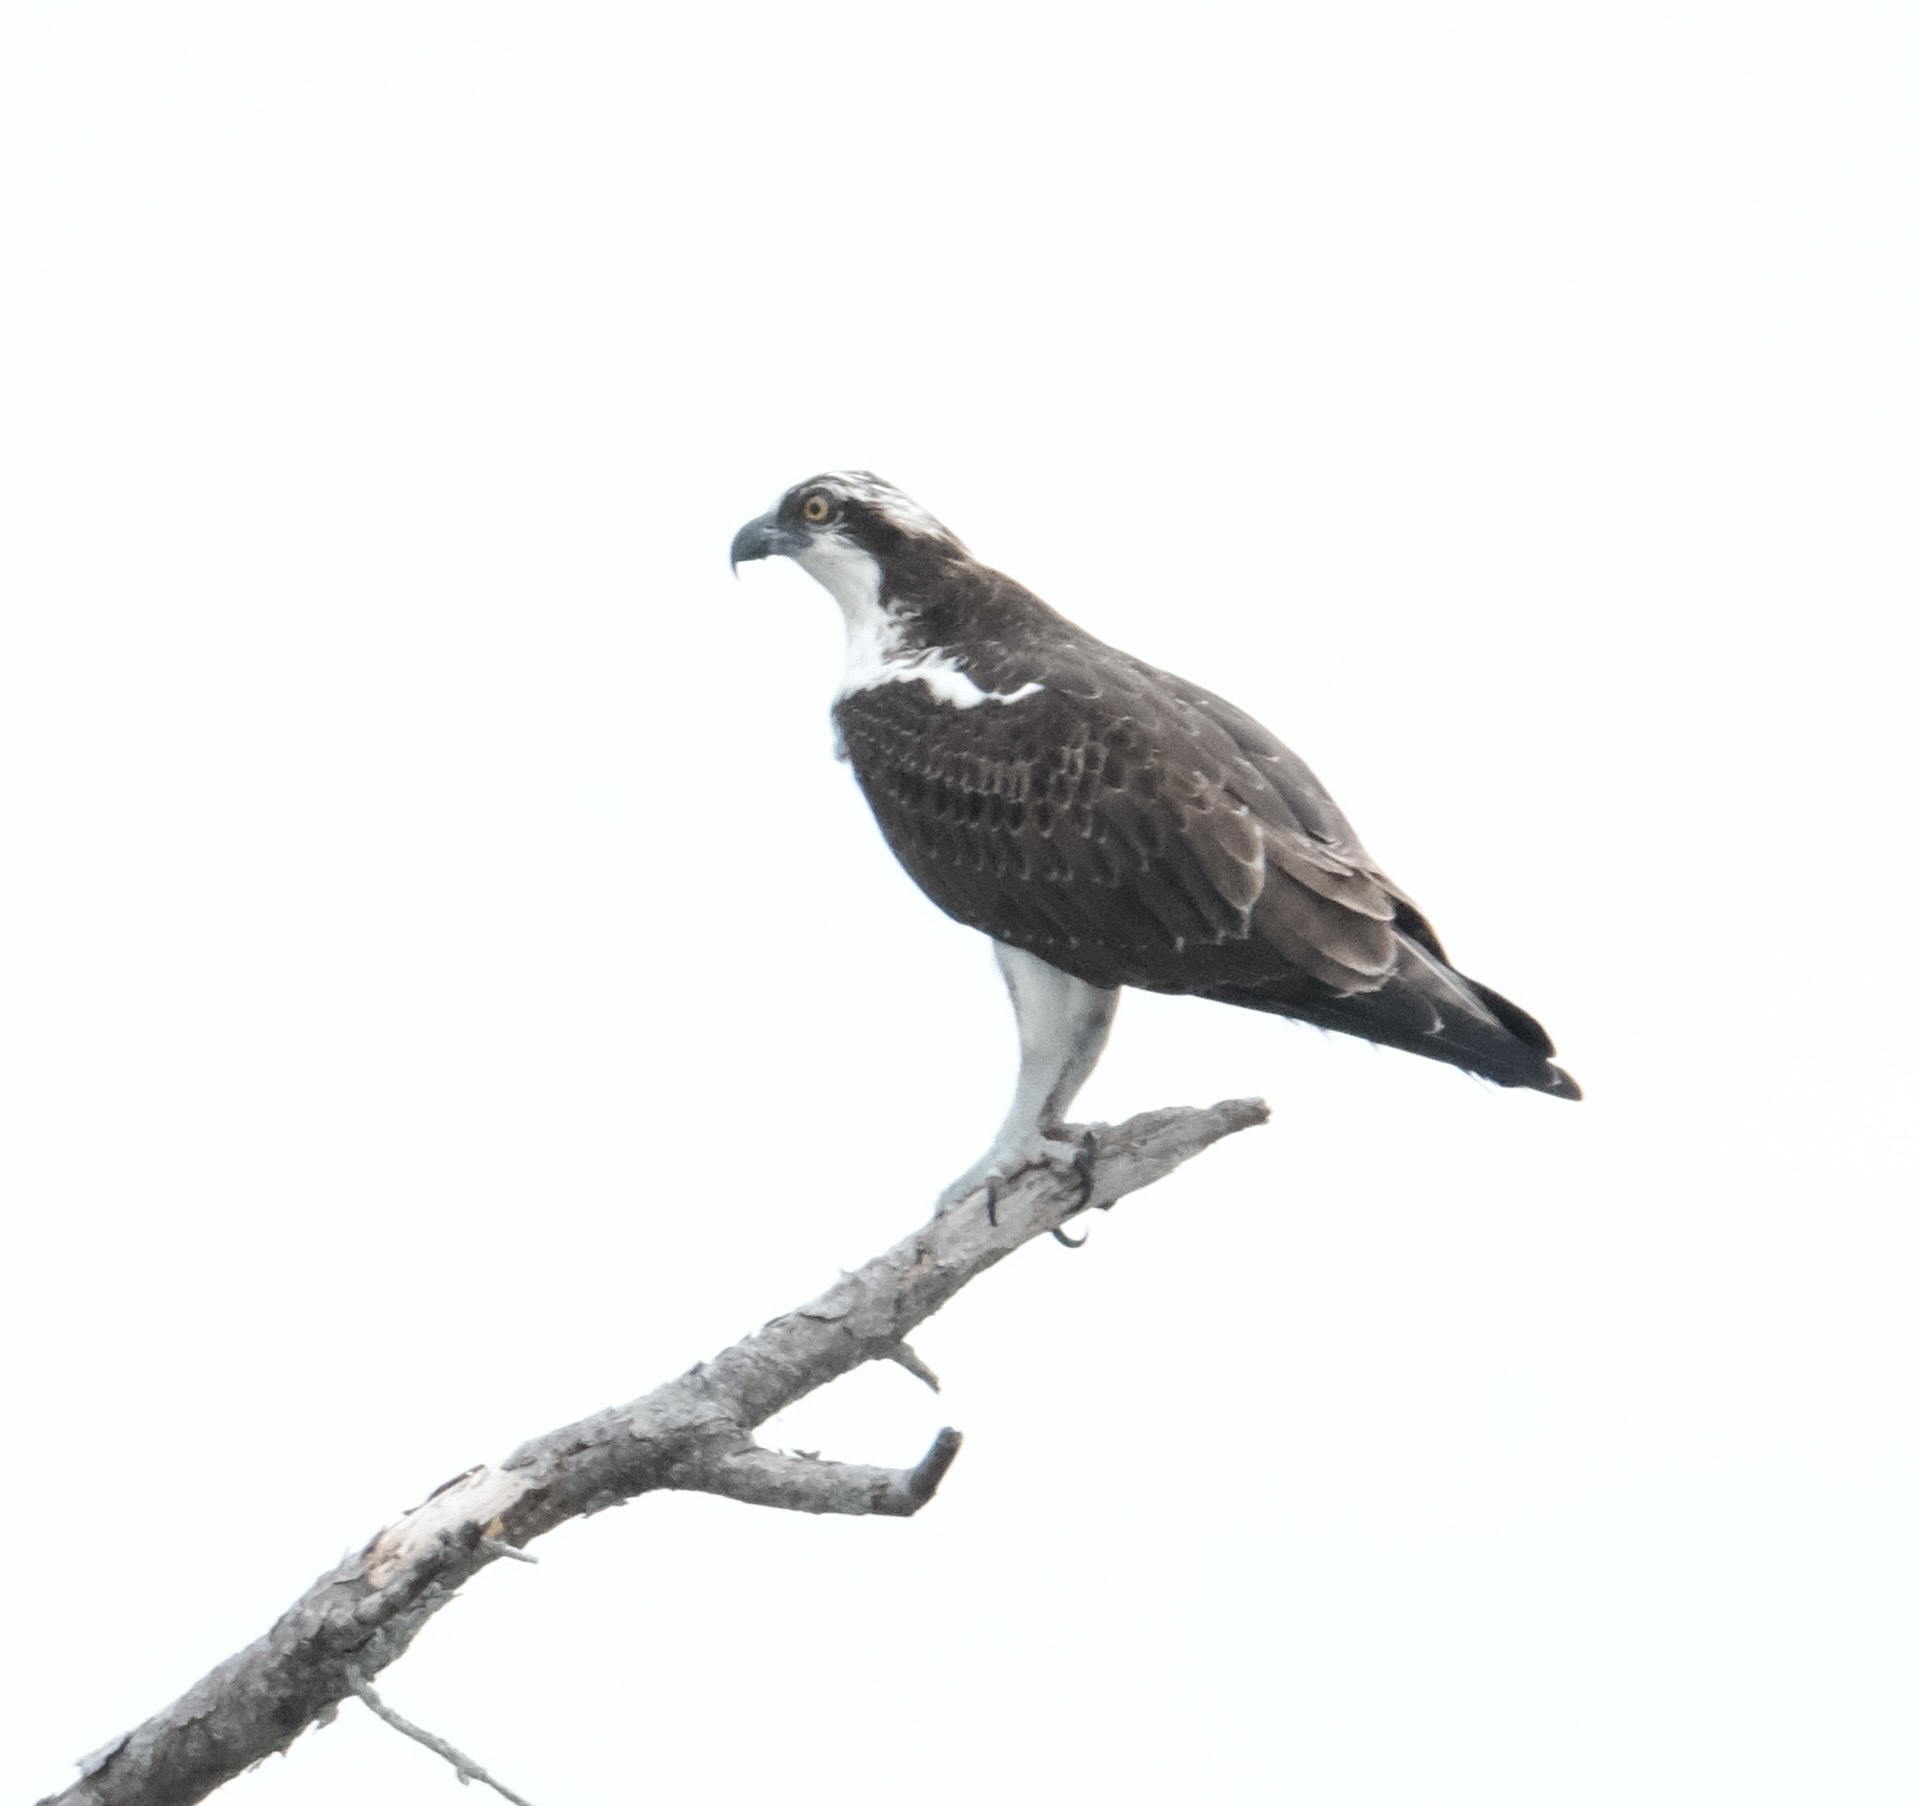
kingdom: Animalia
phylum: Chordata
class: Aves
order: Accipitriformes
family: Pandionidae
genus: Pandion
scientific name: Pandion haliaetus
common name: Osprey
